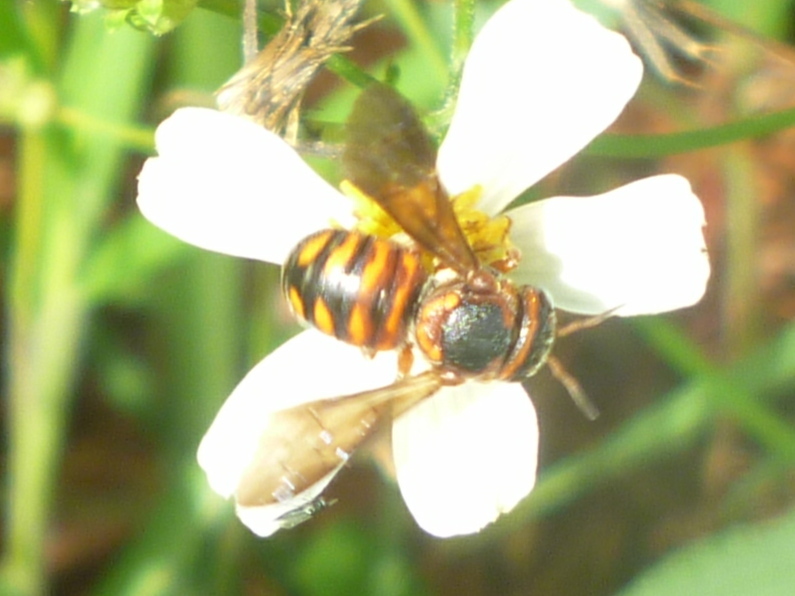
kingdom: Animalia
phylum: Arthropoda
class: Insecta
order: Hymenoptera
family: Megachilidae
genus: Dianthidium
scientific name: Dianthidium floridiense
